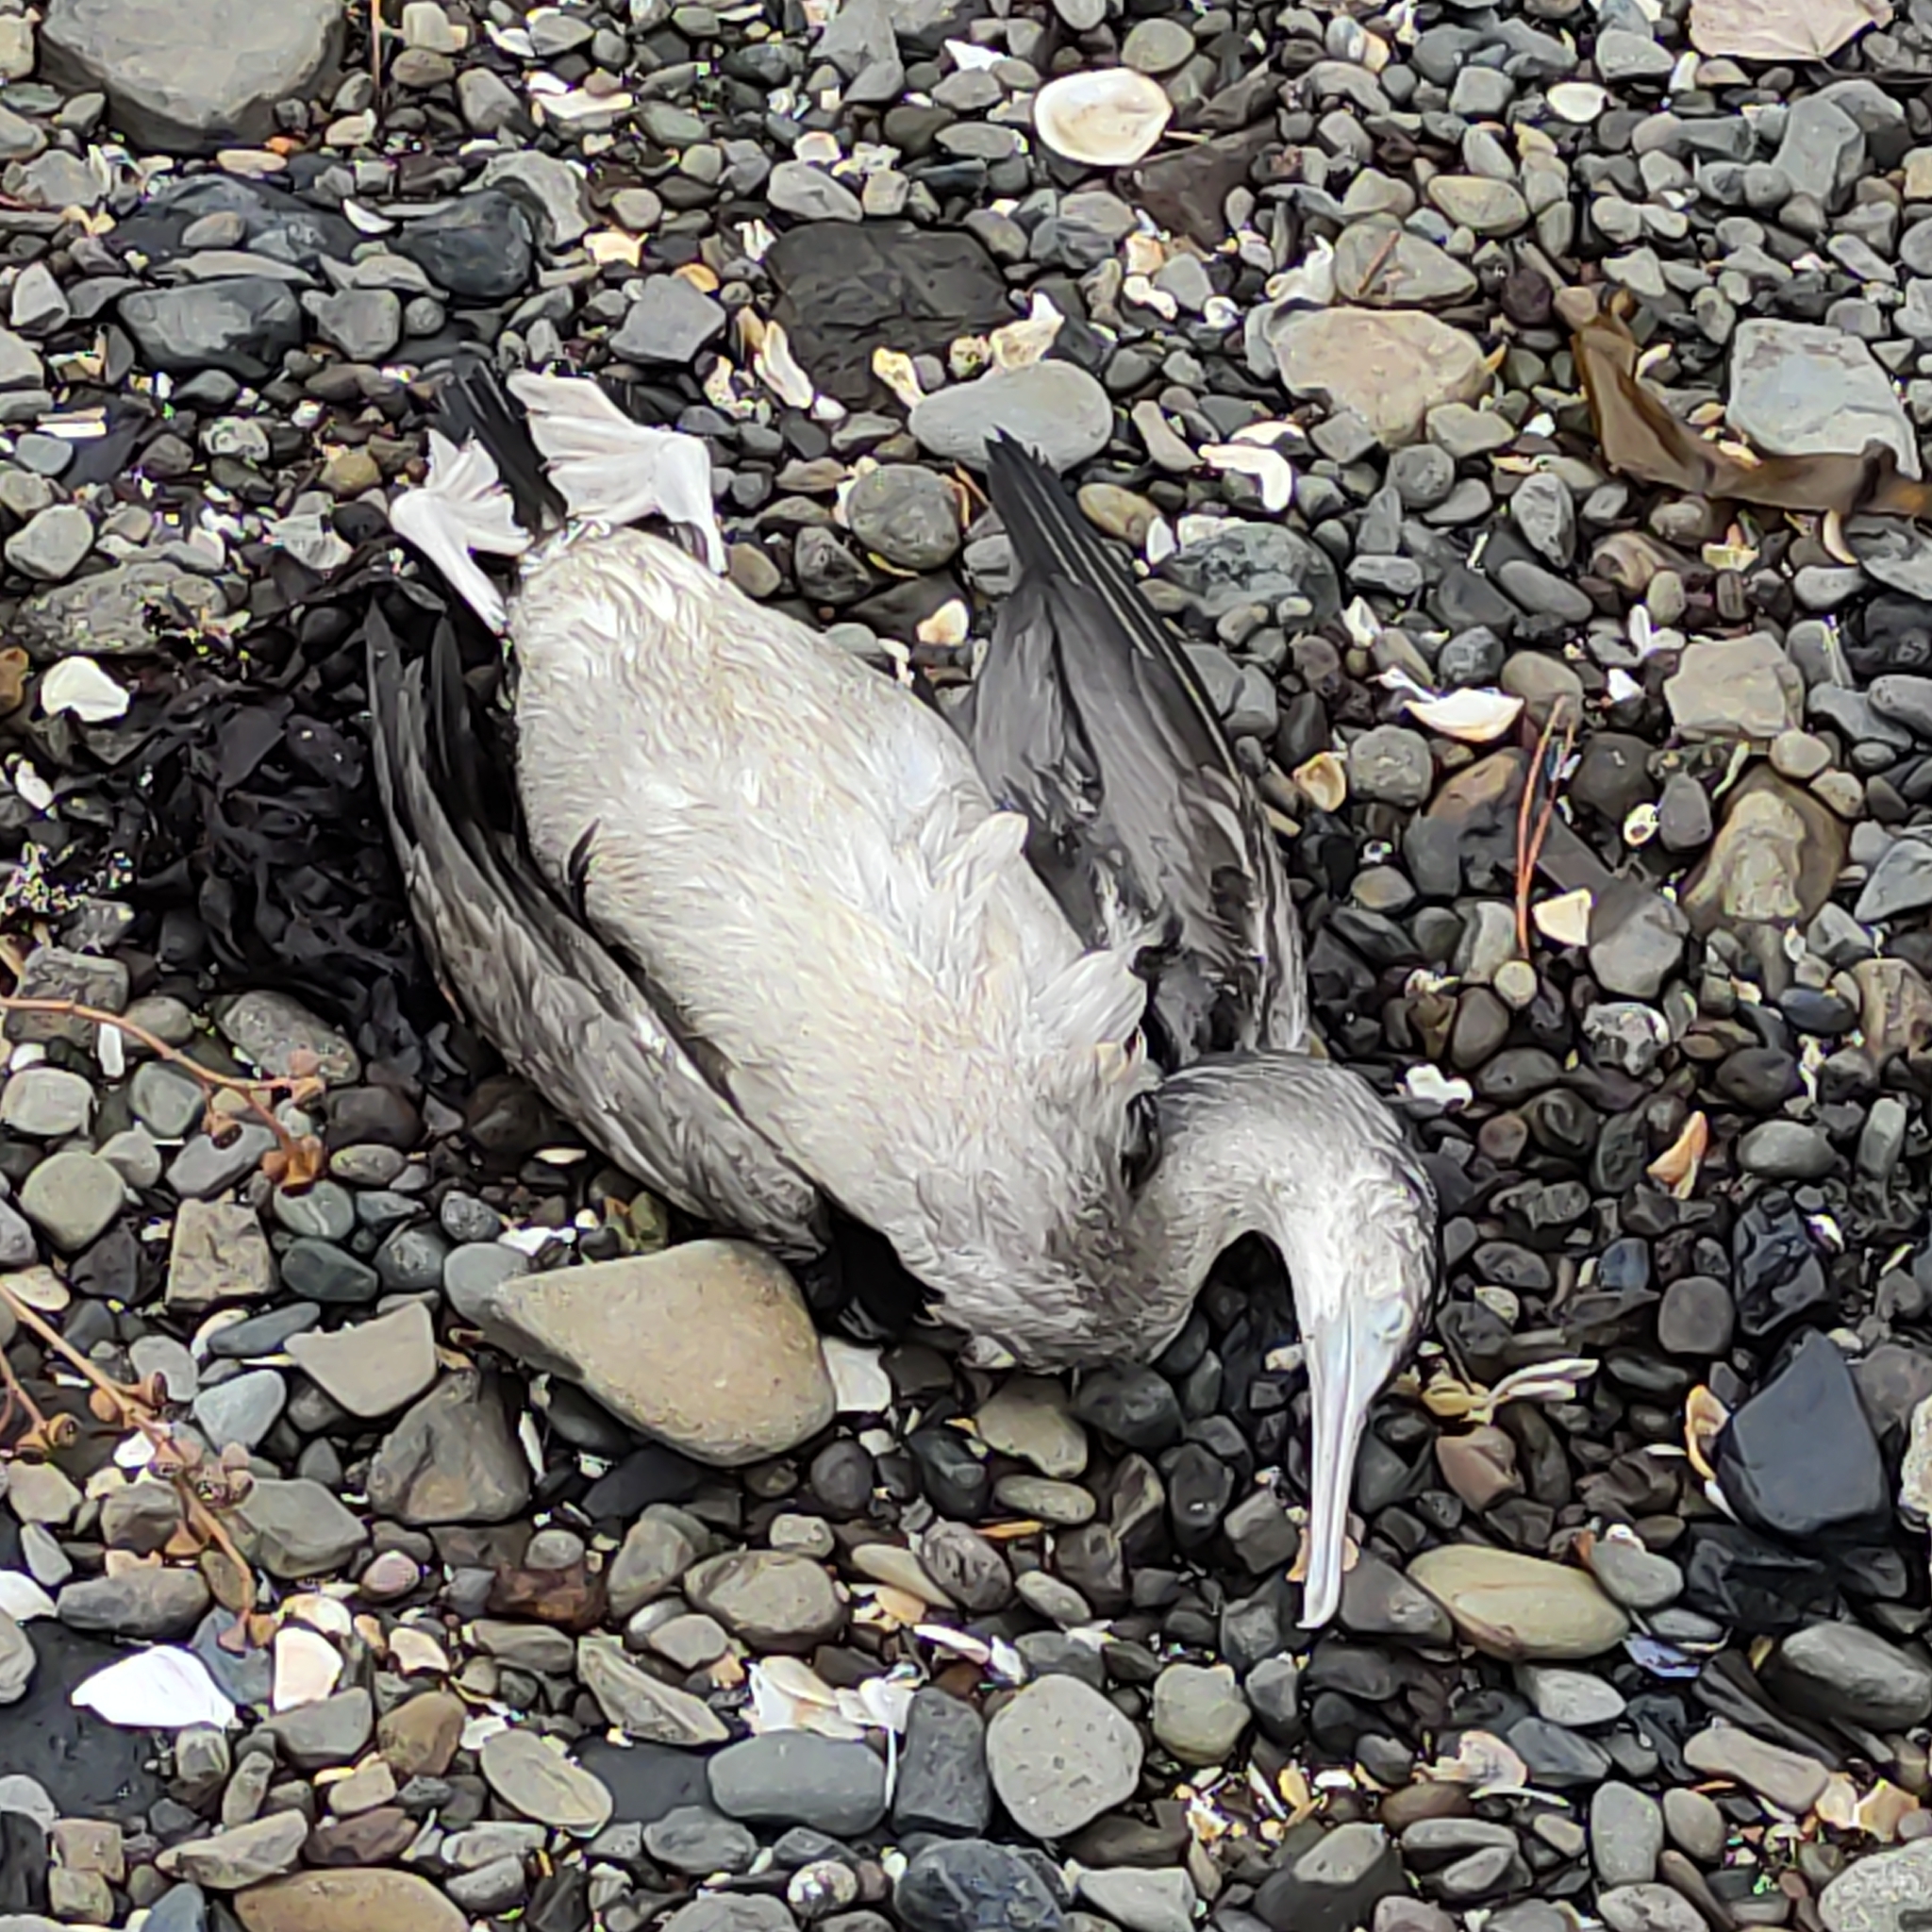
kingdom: Animalia
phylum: Chordata
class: Aves
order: Suliformes
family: Phalacrocoracidae
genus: Phalacrocorax
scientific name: Phalacrocorax punctatus
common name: Spotted shag
